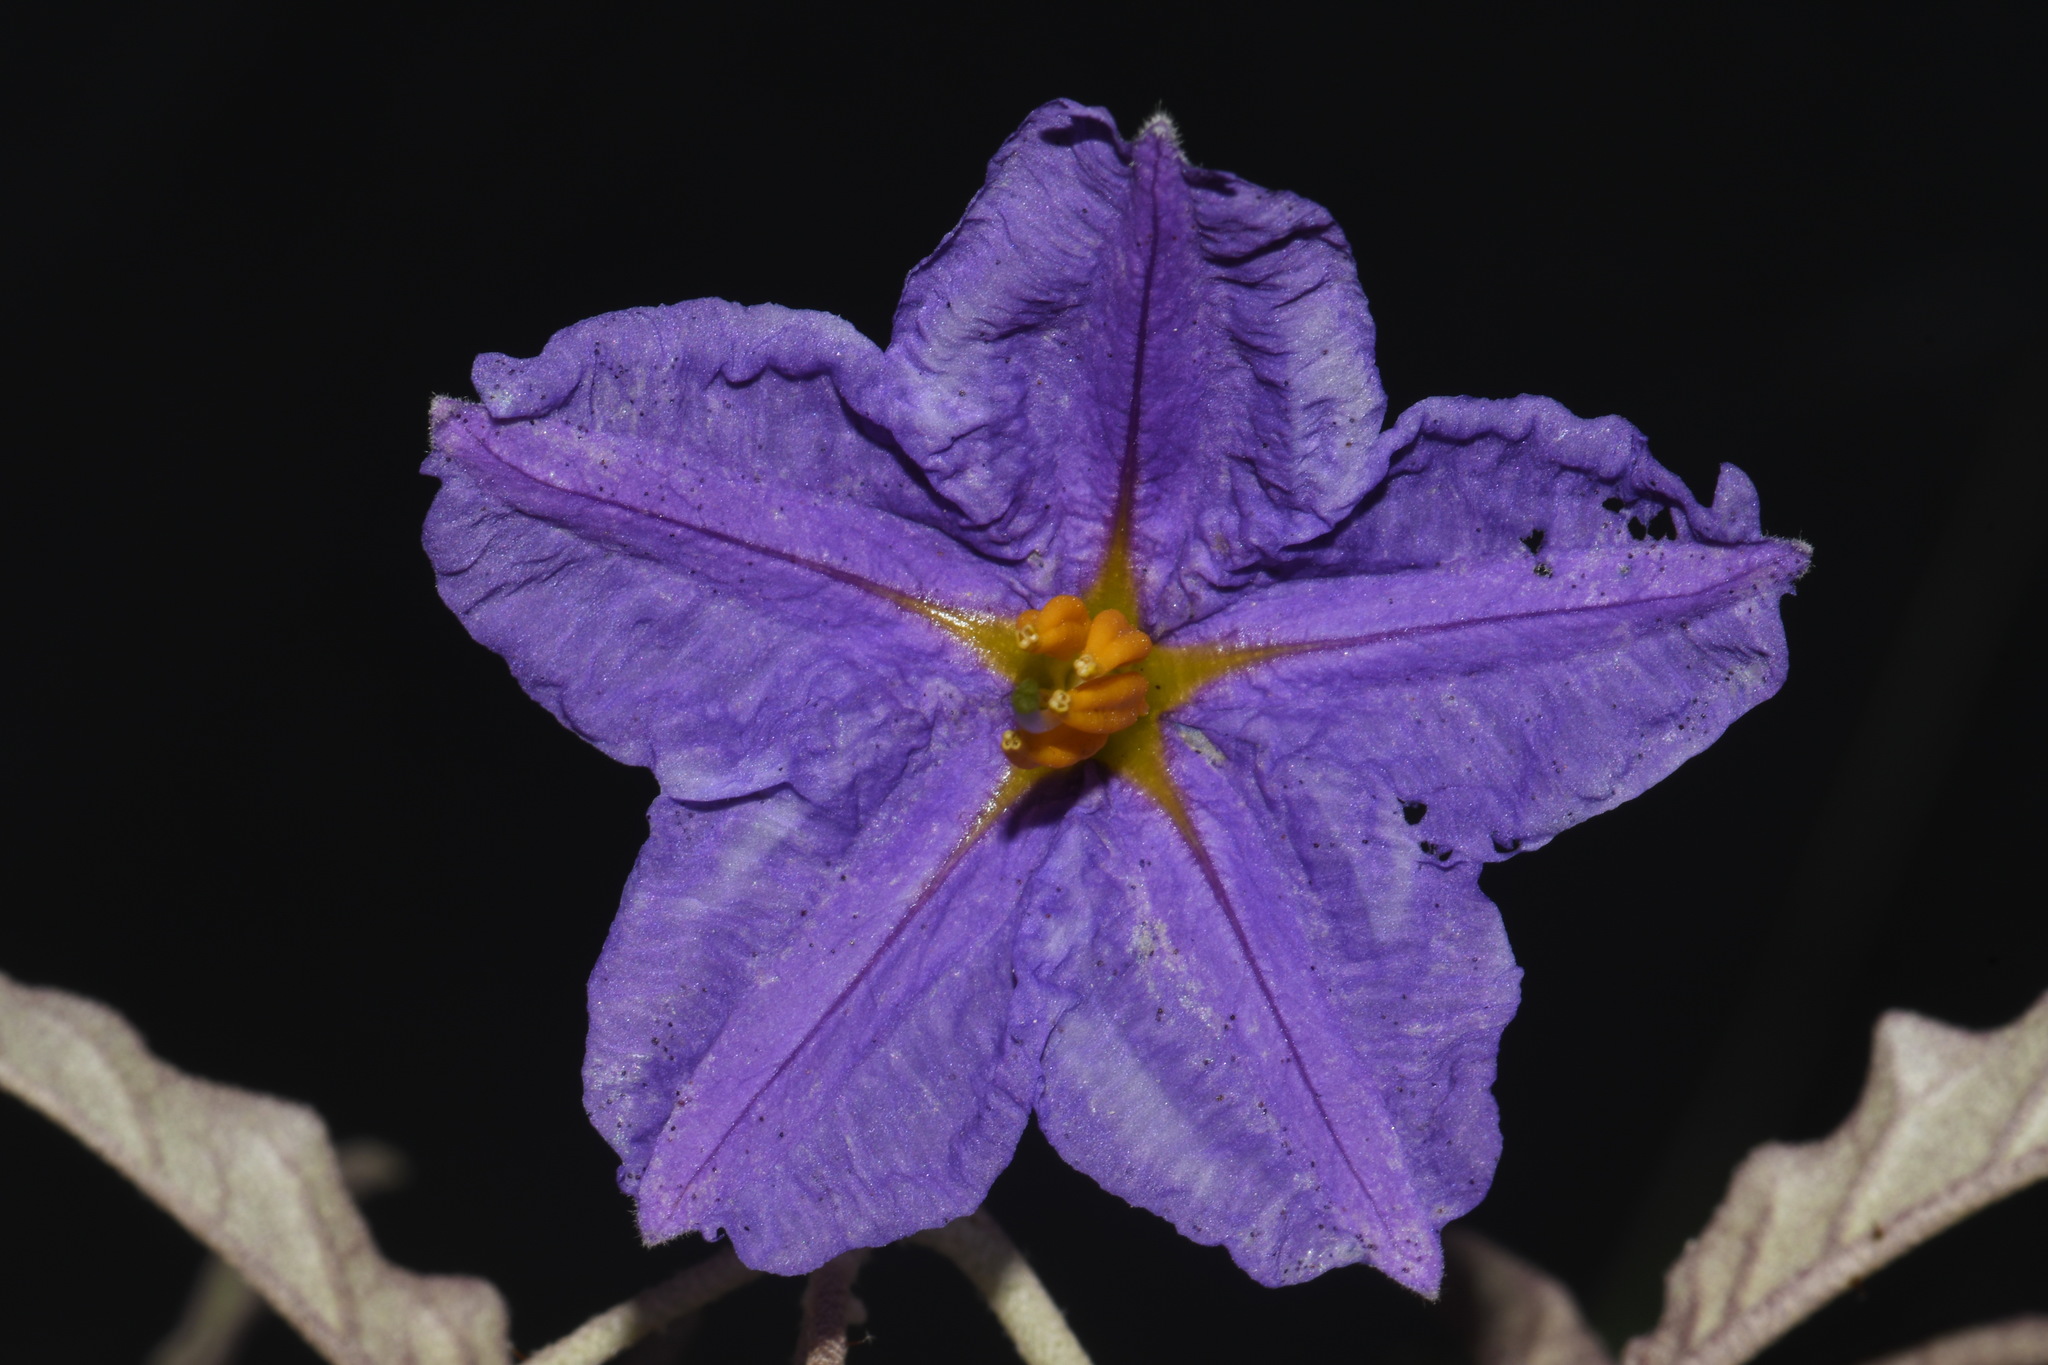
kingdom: Plantae
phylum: Tracheophyta
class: Magnoliopsida
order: Solanales
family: Solanaceae
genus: Solanum
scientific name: Solanum elaeagnifolium
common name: Silverleaf nightshade
